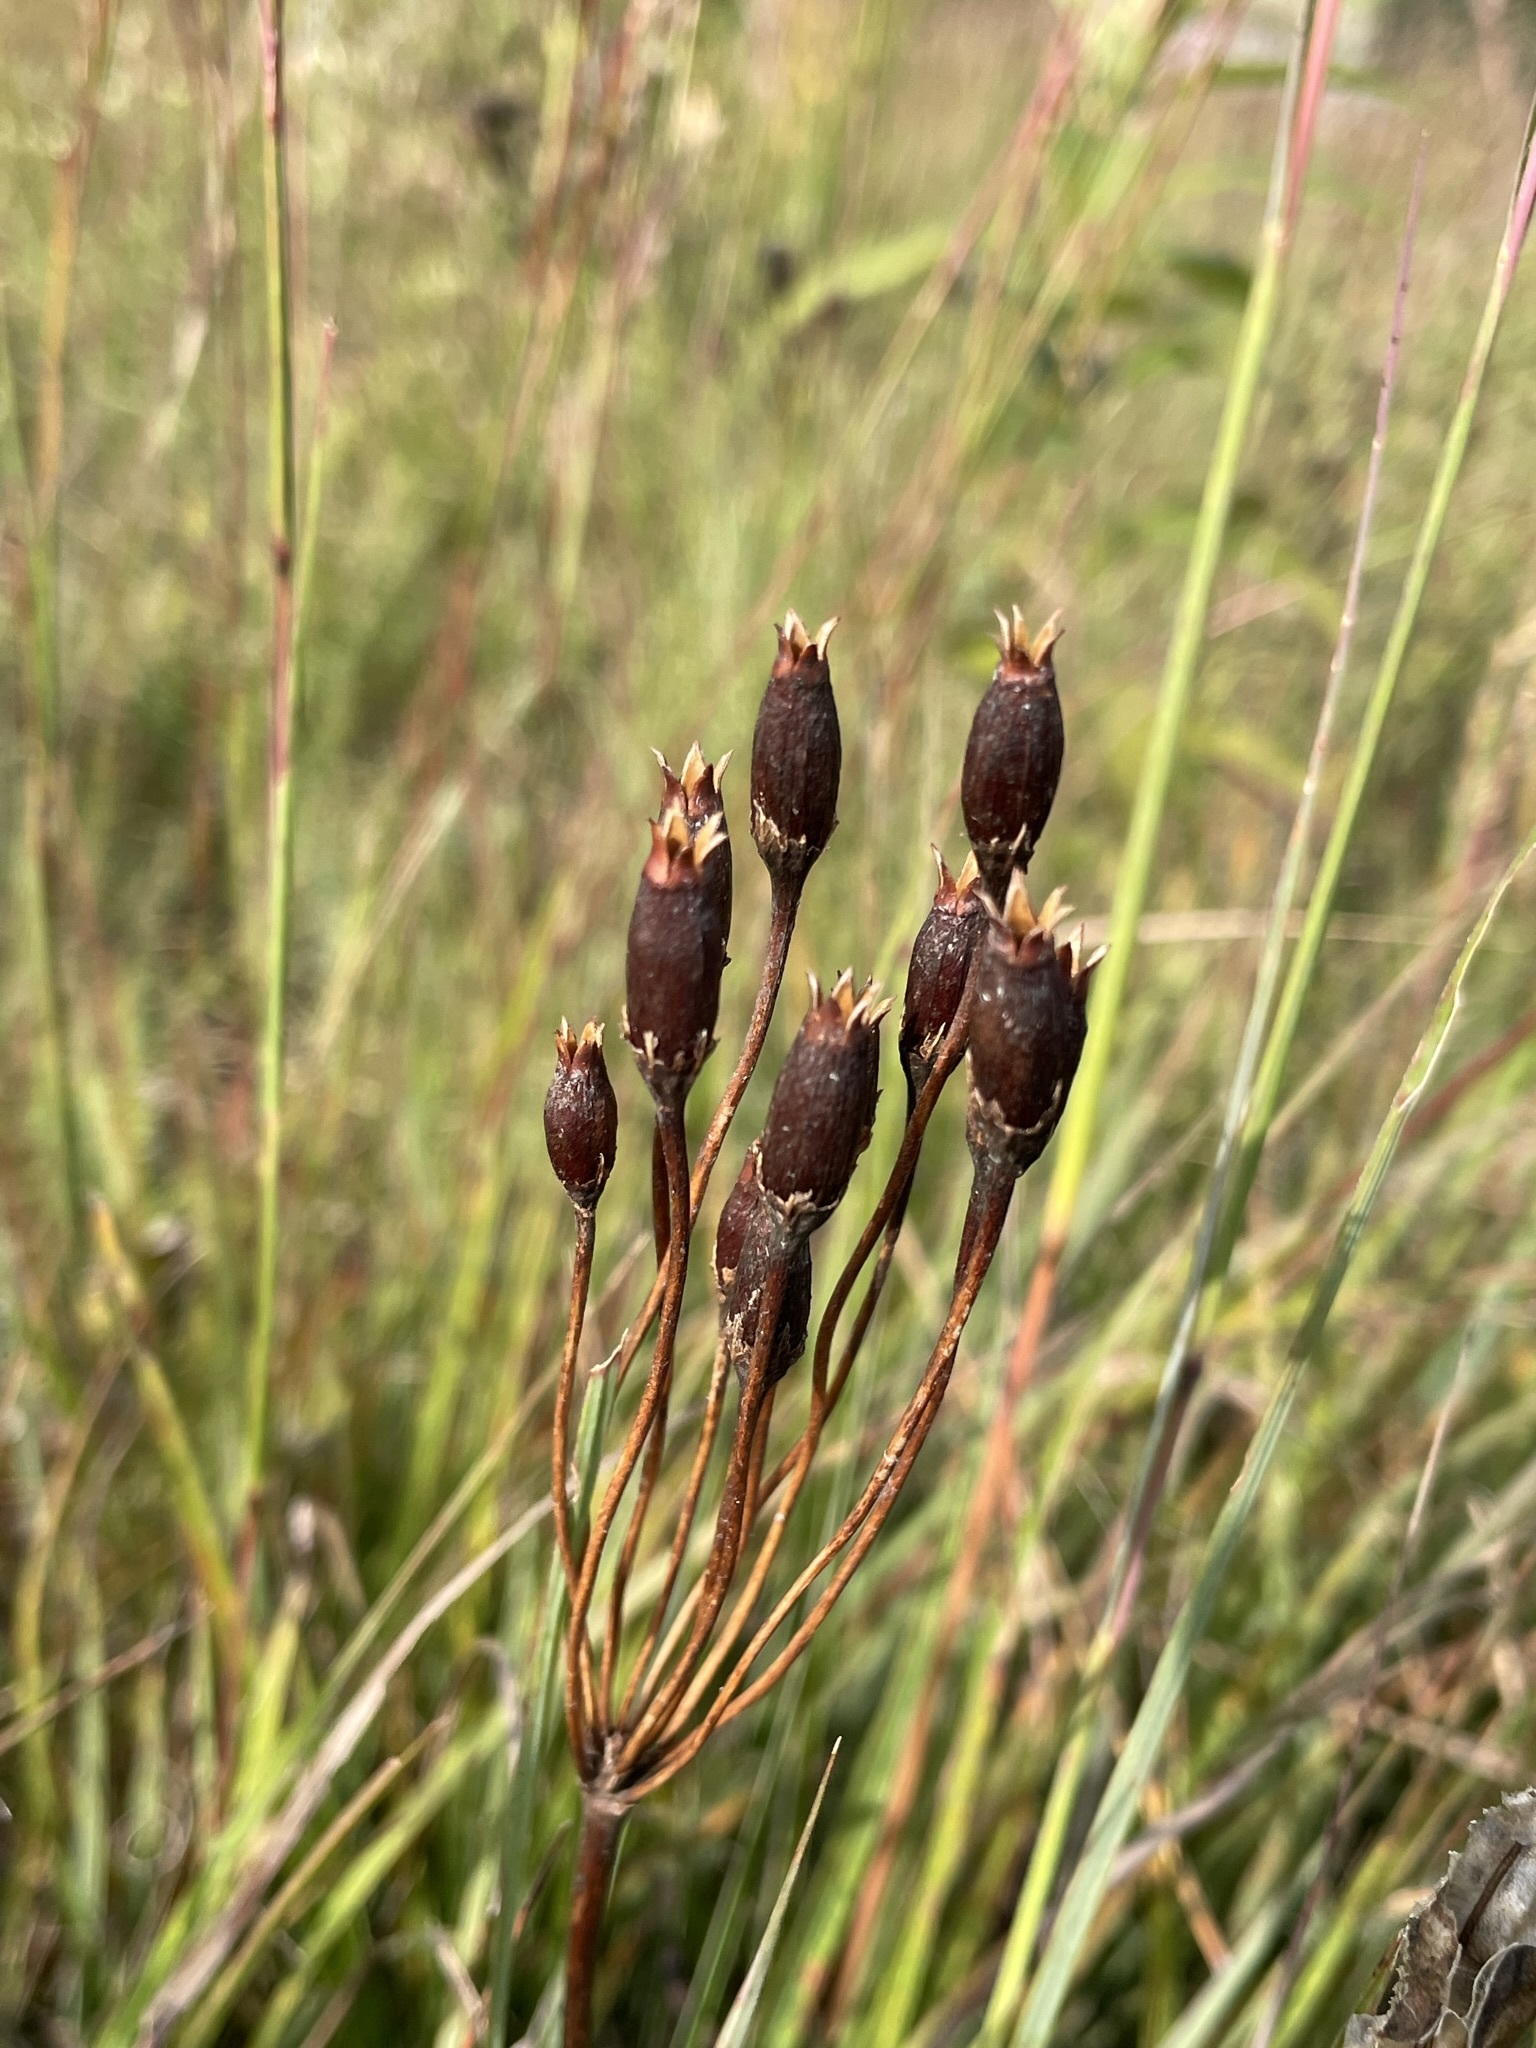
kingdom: Plantae
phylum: Tracheophyta
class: Magnoliopsida
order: Ericales
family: Primulaceae
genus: Dodecatheon
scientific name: Dodecatheon meadia
